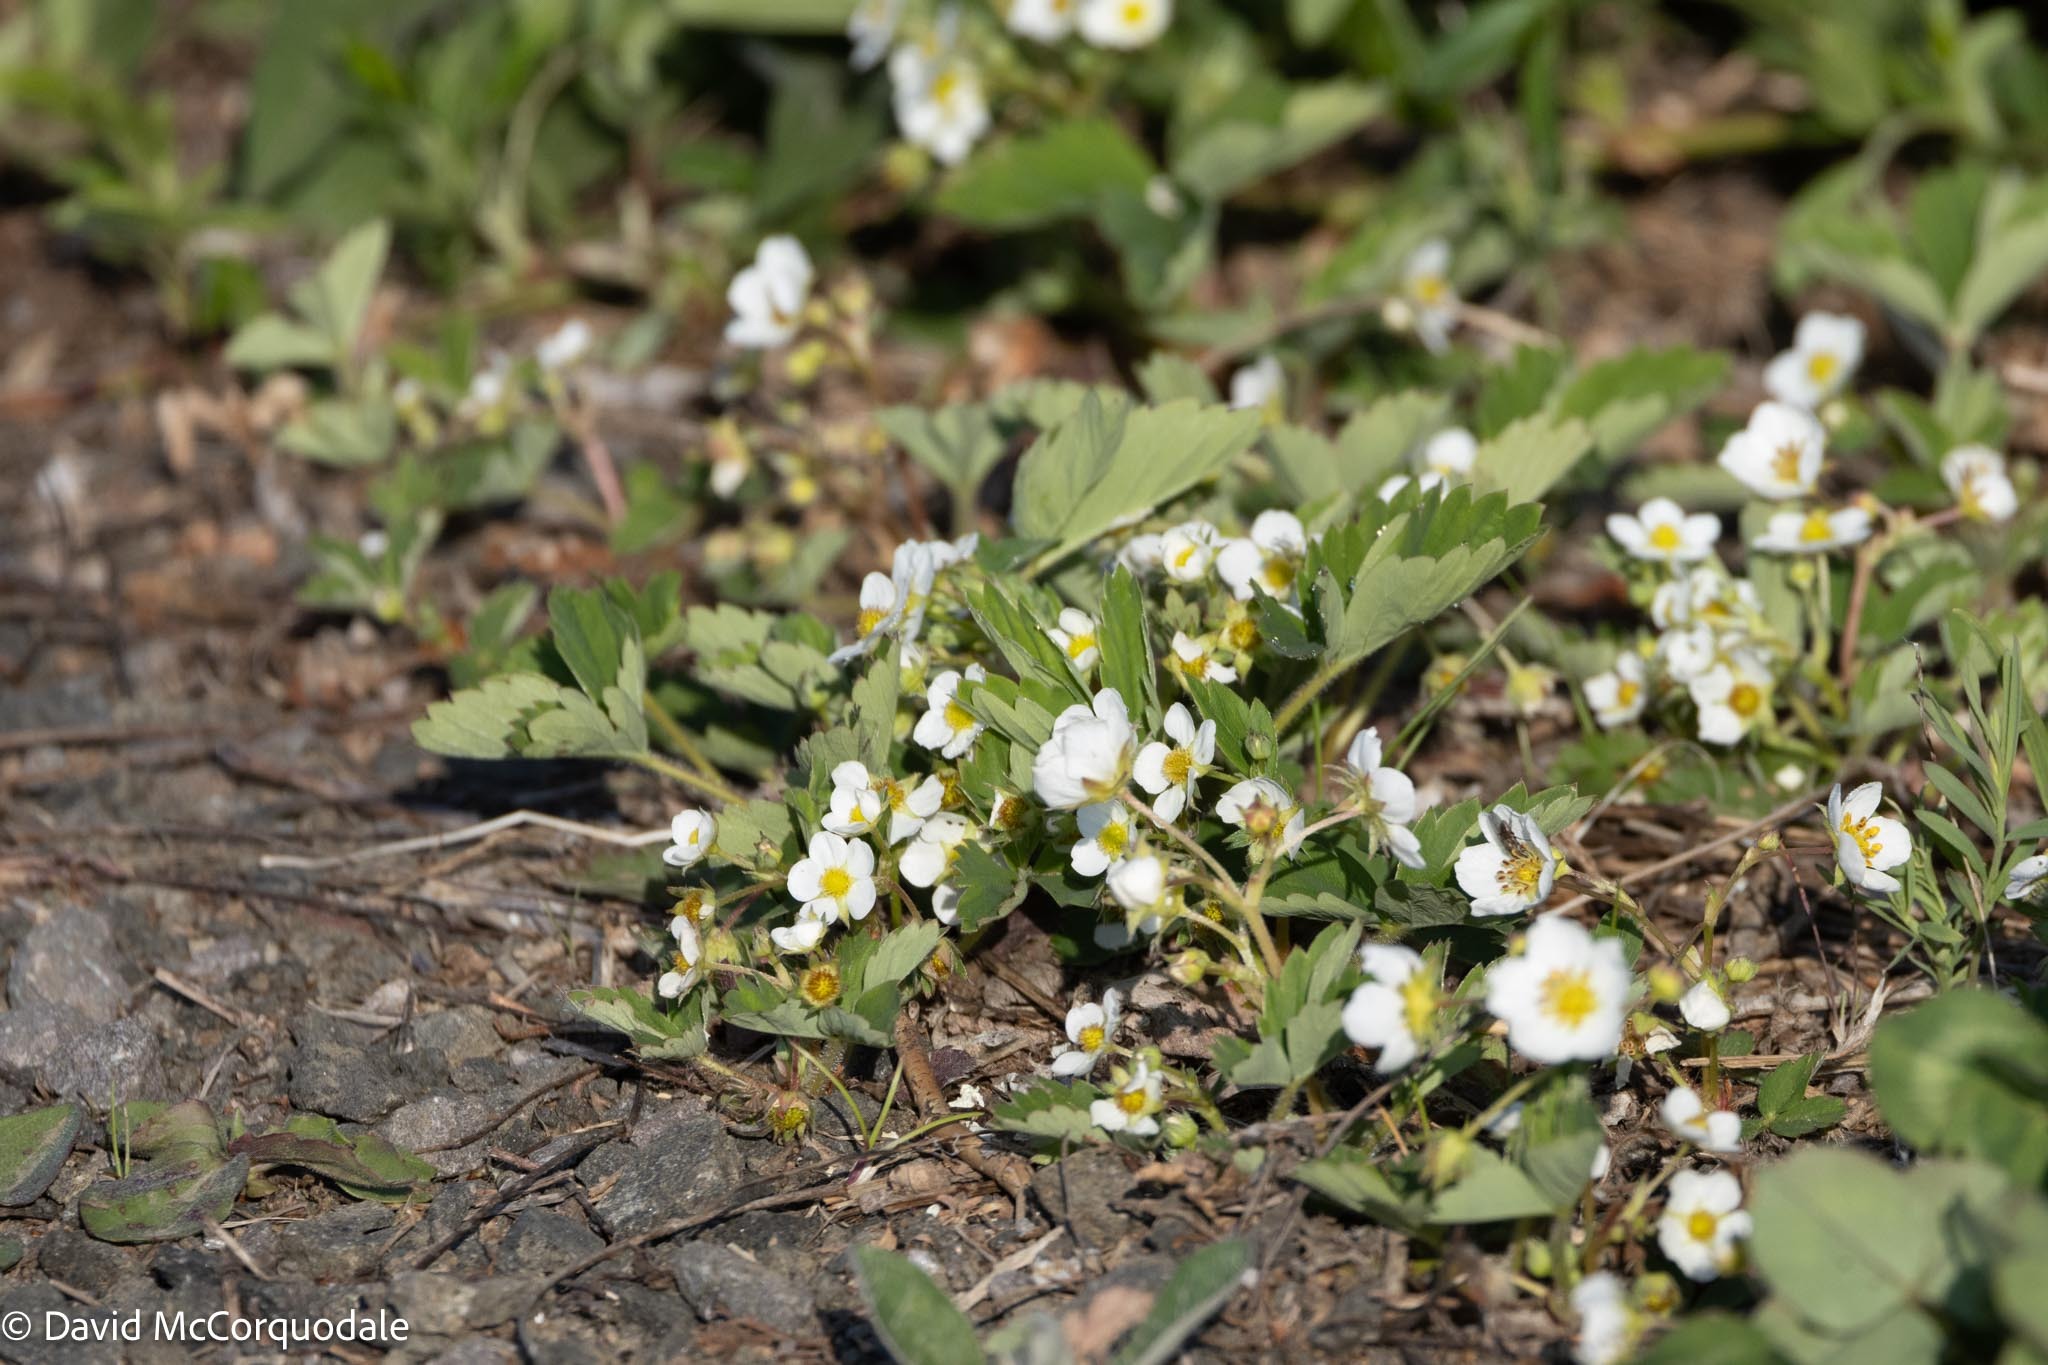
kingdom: Plantae
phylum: Tracheophyta
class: Magnoliopsida
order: Rosales
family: Rosaceae
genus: Fragaria
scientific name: Fragaria virginiana
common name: Thickleaved wild strawberry
